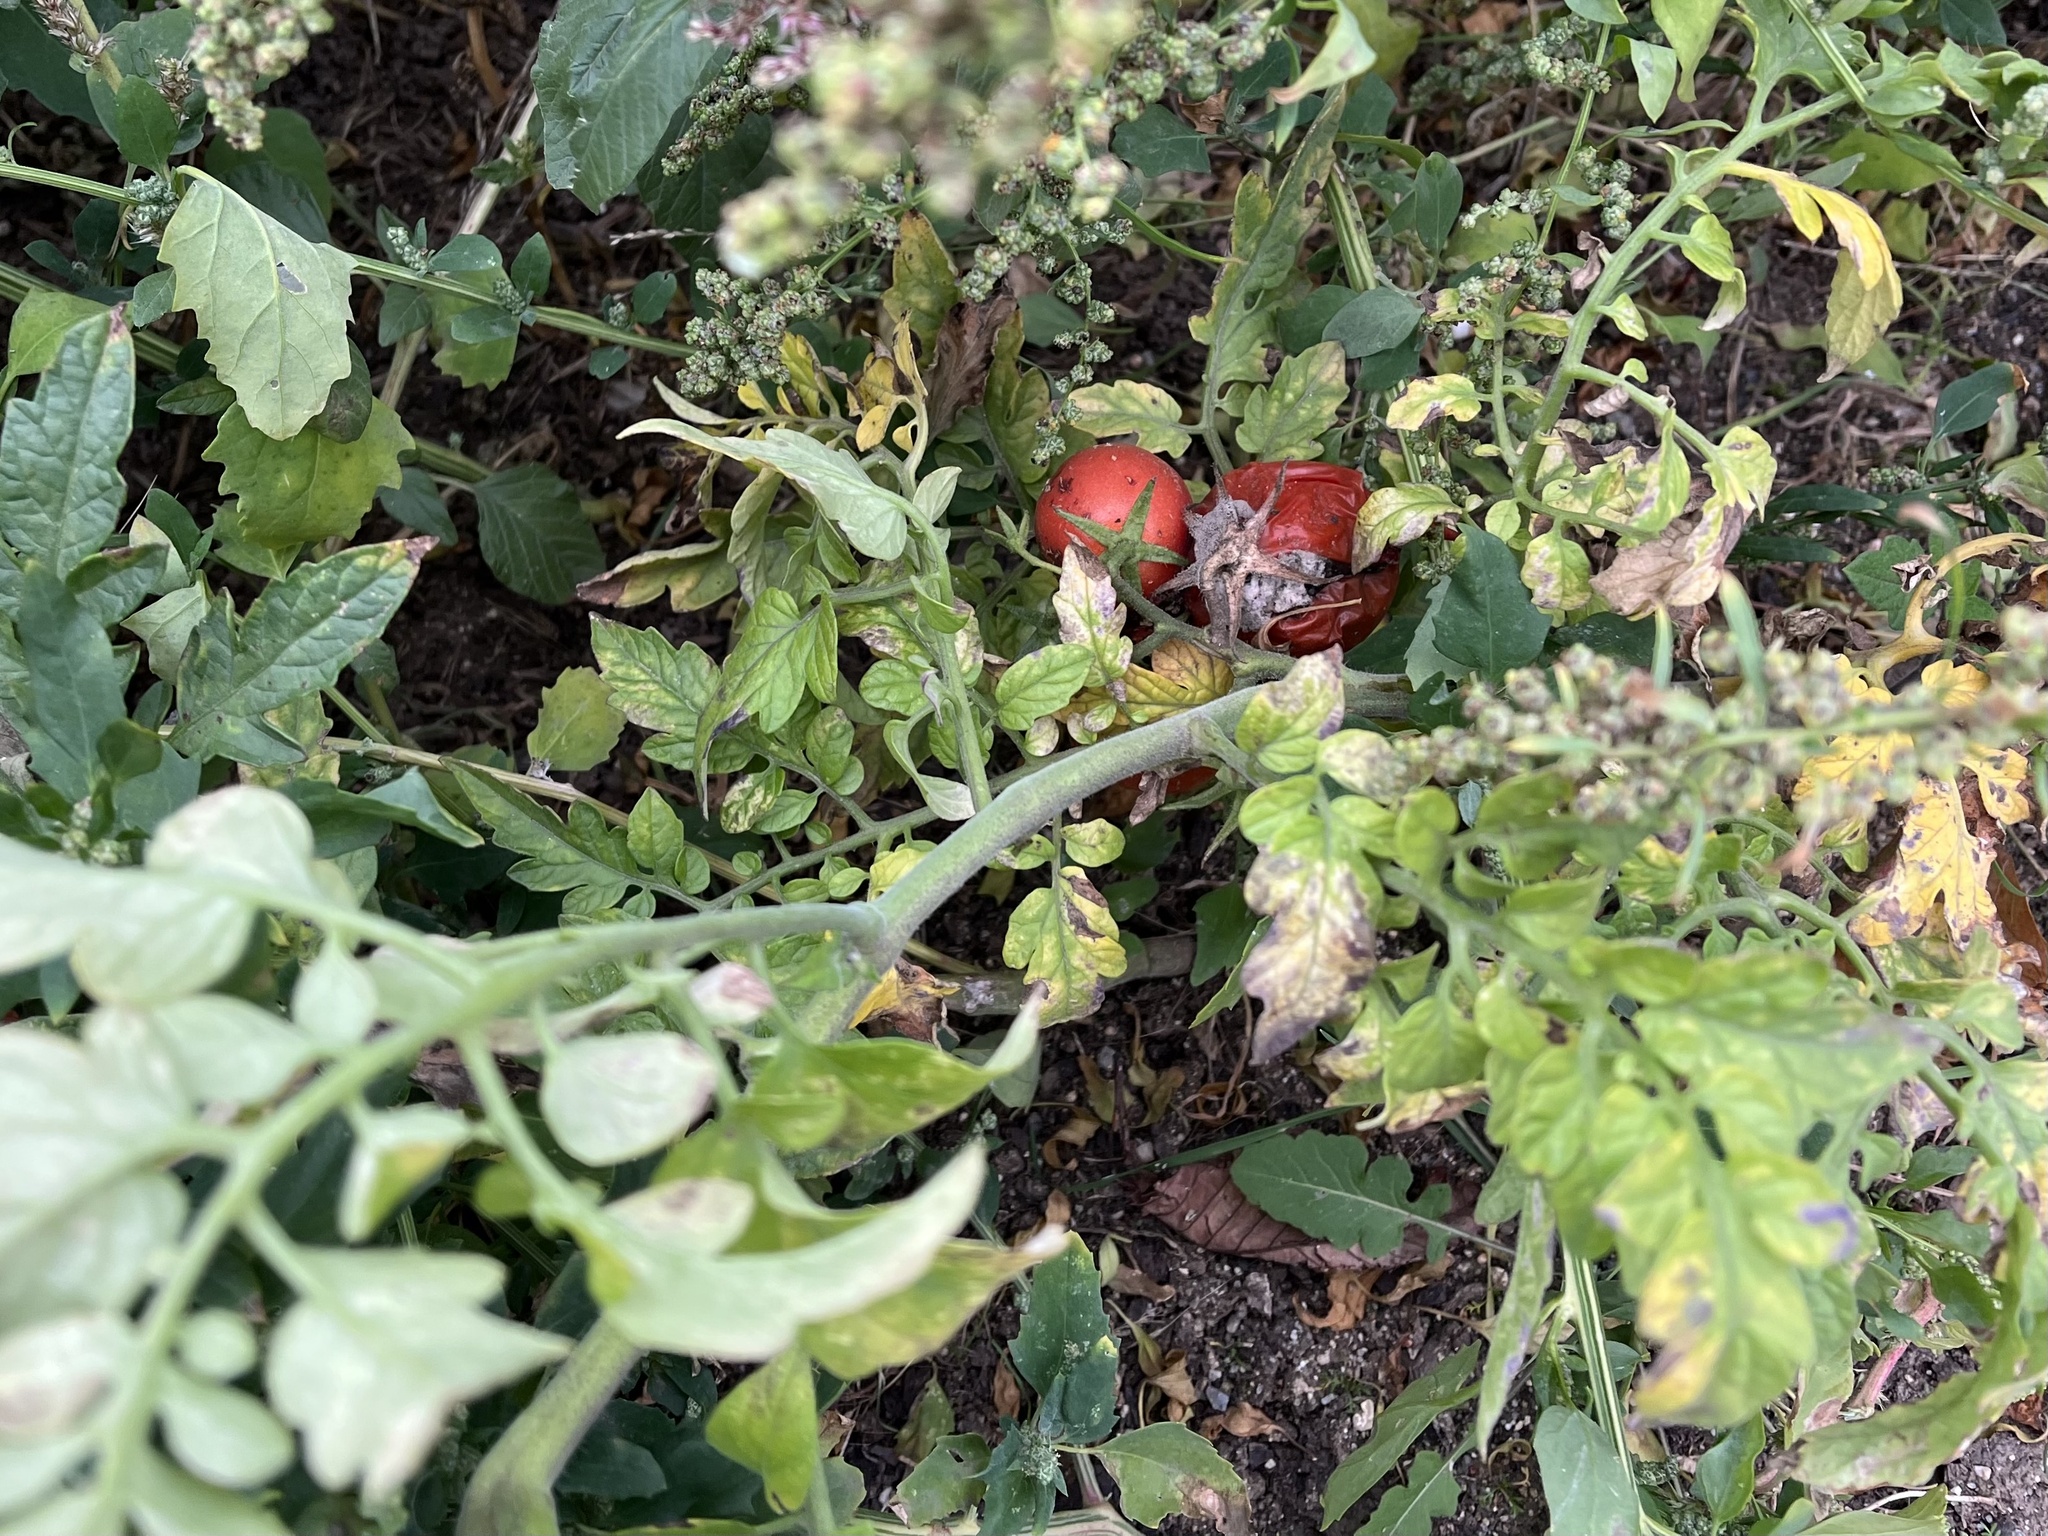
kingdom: Plantae
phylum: Tracheophyta
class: Magnoliopsida
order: Solanales
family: Solanaceae
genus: Solanum
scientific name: Solanum lycopersicum
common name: Garden tomato
